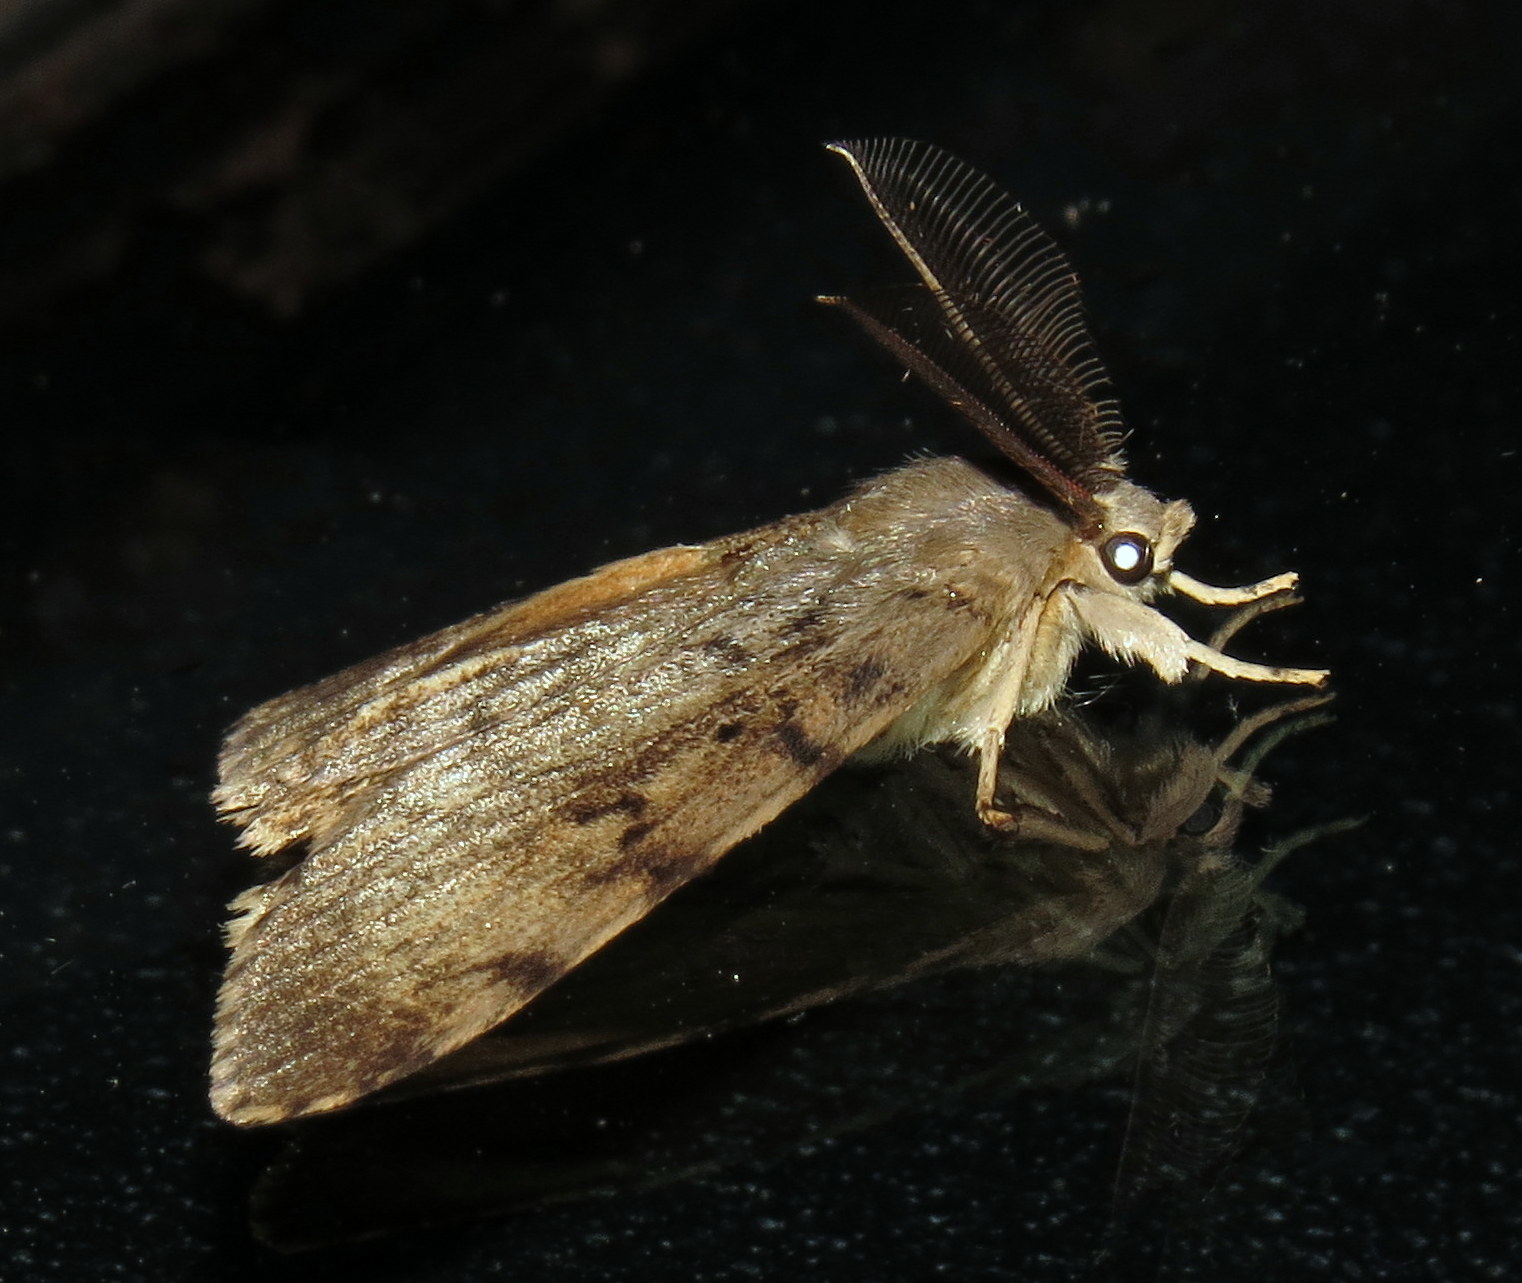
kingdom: Animalia
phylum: Arthropoda
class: Insecta
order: Lepidoptera
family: Erebidae
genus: Lymantria
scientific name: Lymantria dispar
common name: Gypsy moth
